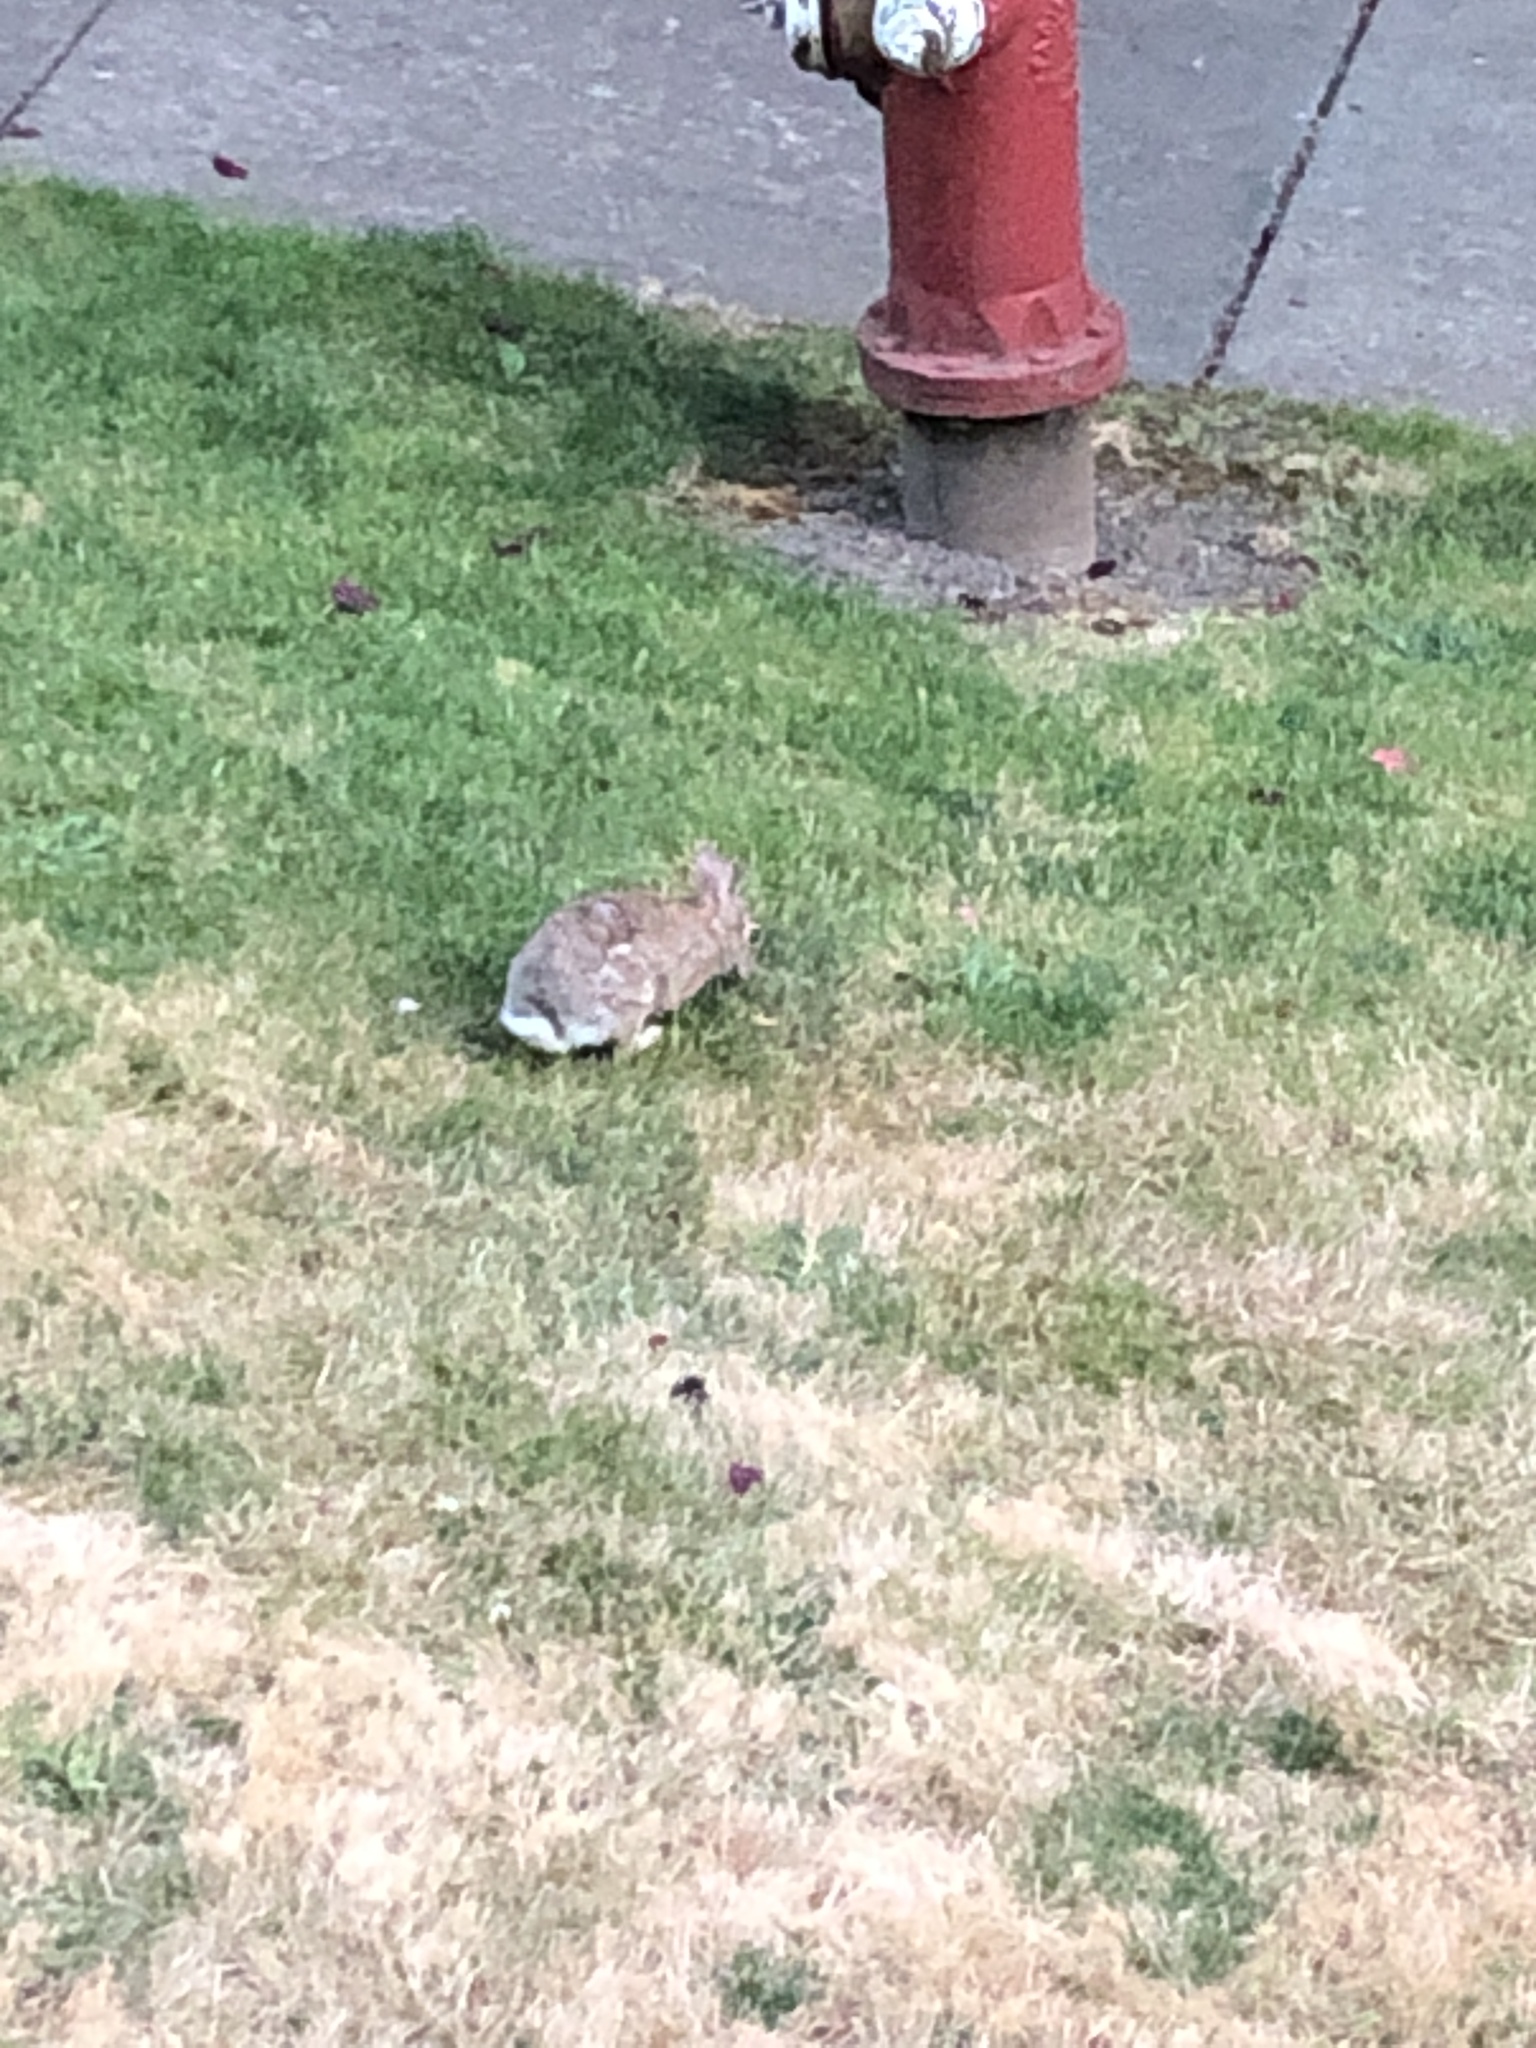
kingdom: Animalia
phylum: Chordata
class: Mammalia
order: Lagomorpha
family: Leporidae
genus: Sylvilagus
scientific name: Sylvilagus floridanus
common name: Eastern cottontail
